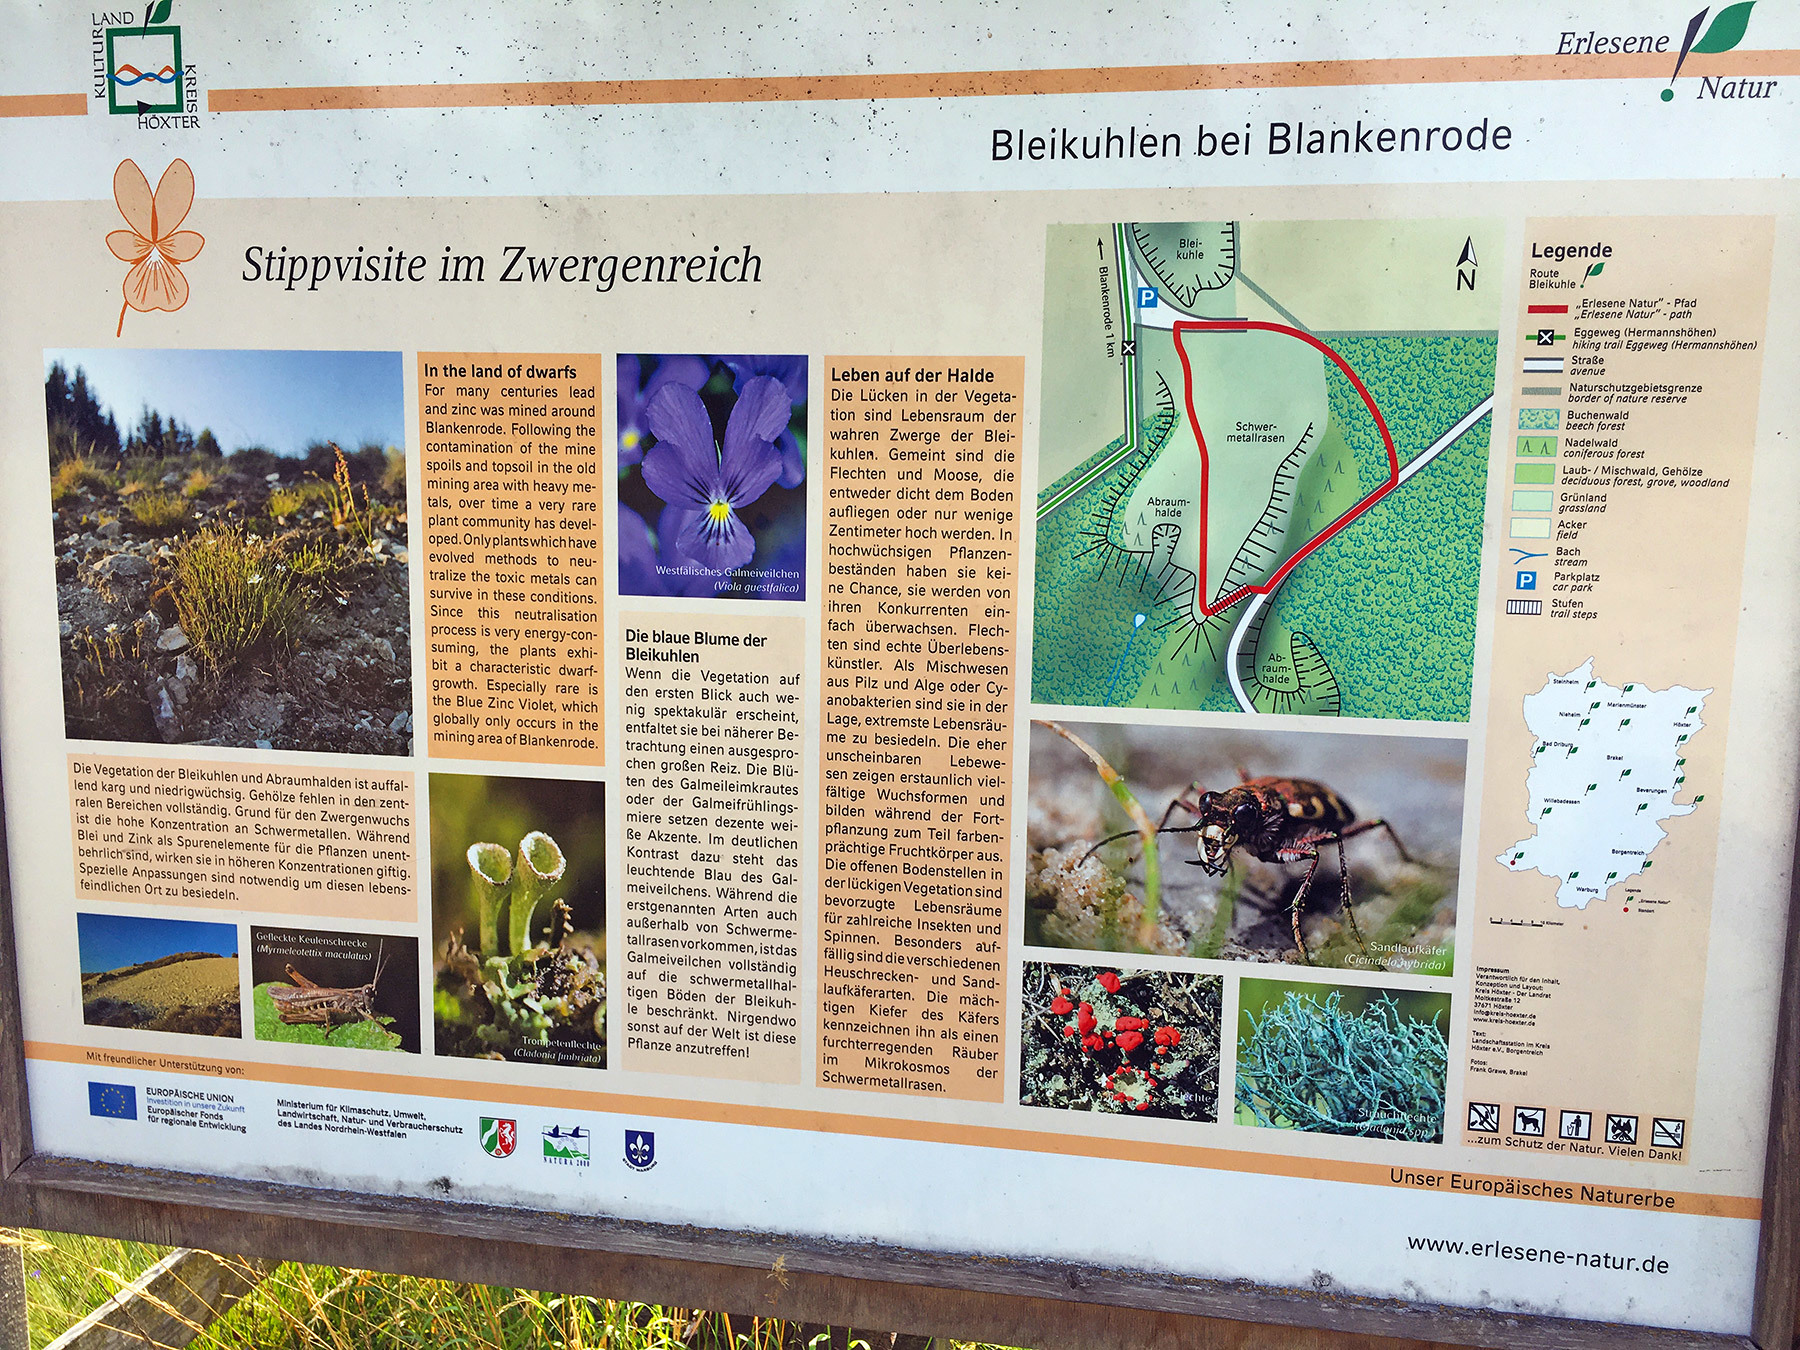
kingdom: Plantae
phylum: Tracheophyta
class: Magnoliopsida
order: Malpighiales
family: Violaceae
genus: Viola
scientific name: Viola lutea
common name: Mountain pansy
